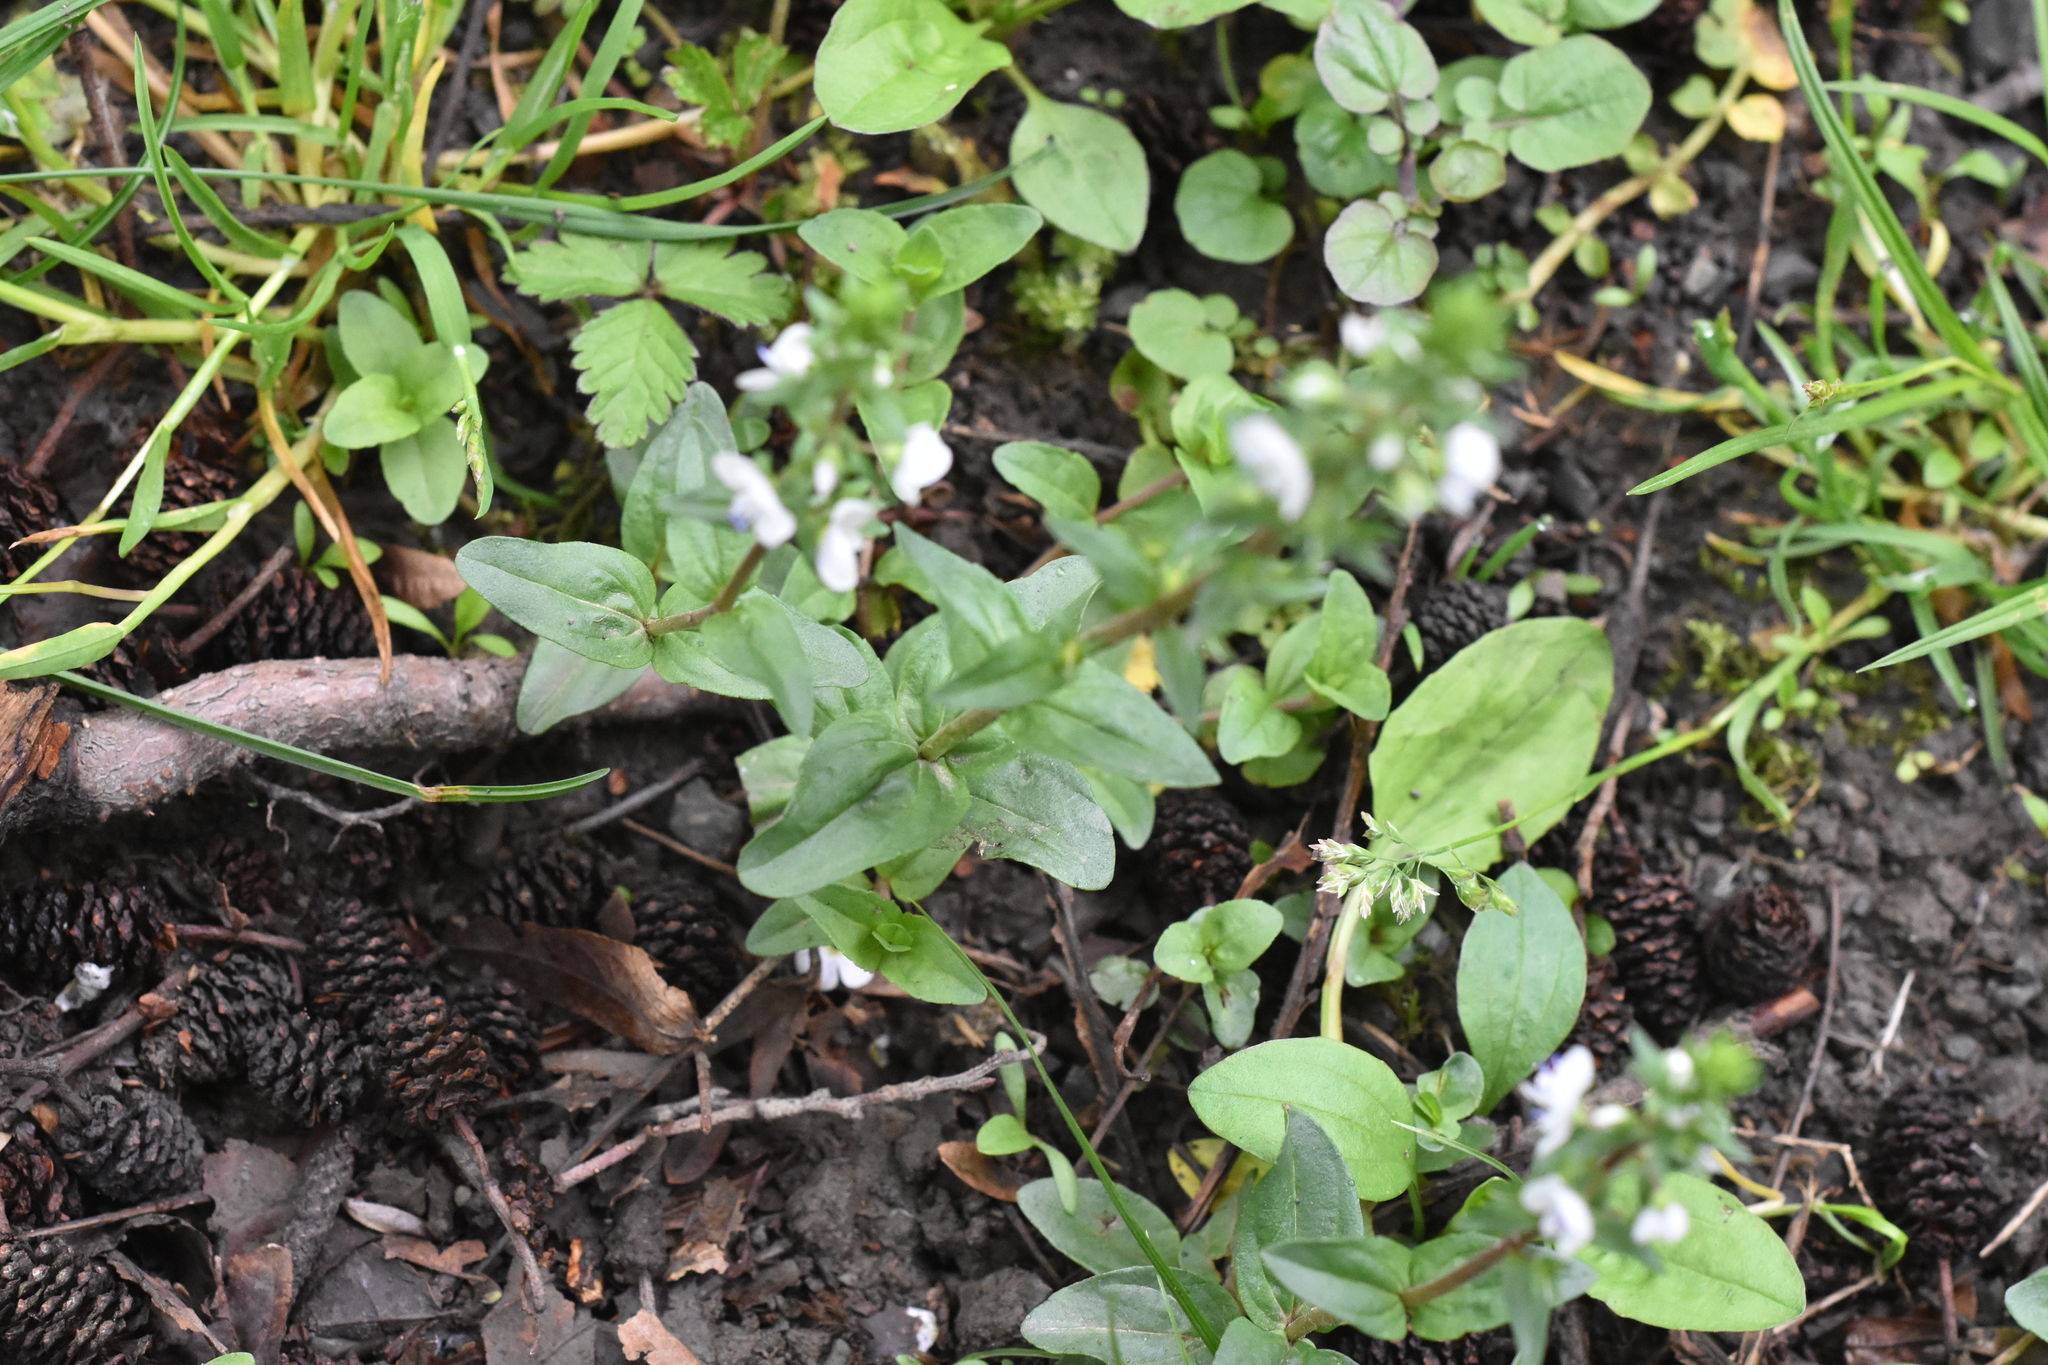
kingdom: Plantae
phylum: Tracheophyta
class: Magnoliopsida
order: Lamiales
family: Plantaginaceae
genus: Veronica
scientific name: Veronica serpyllifolia
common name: Thyme-leaved speedwell
